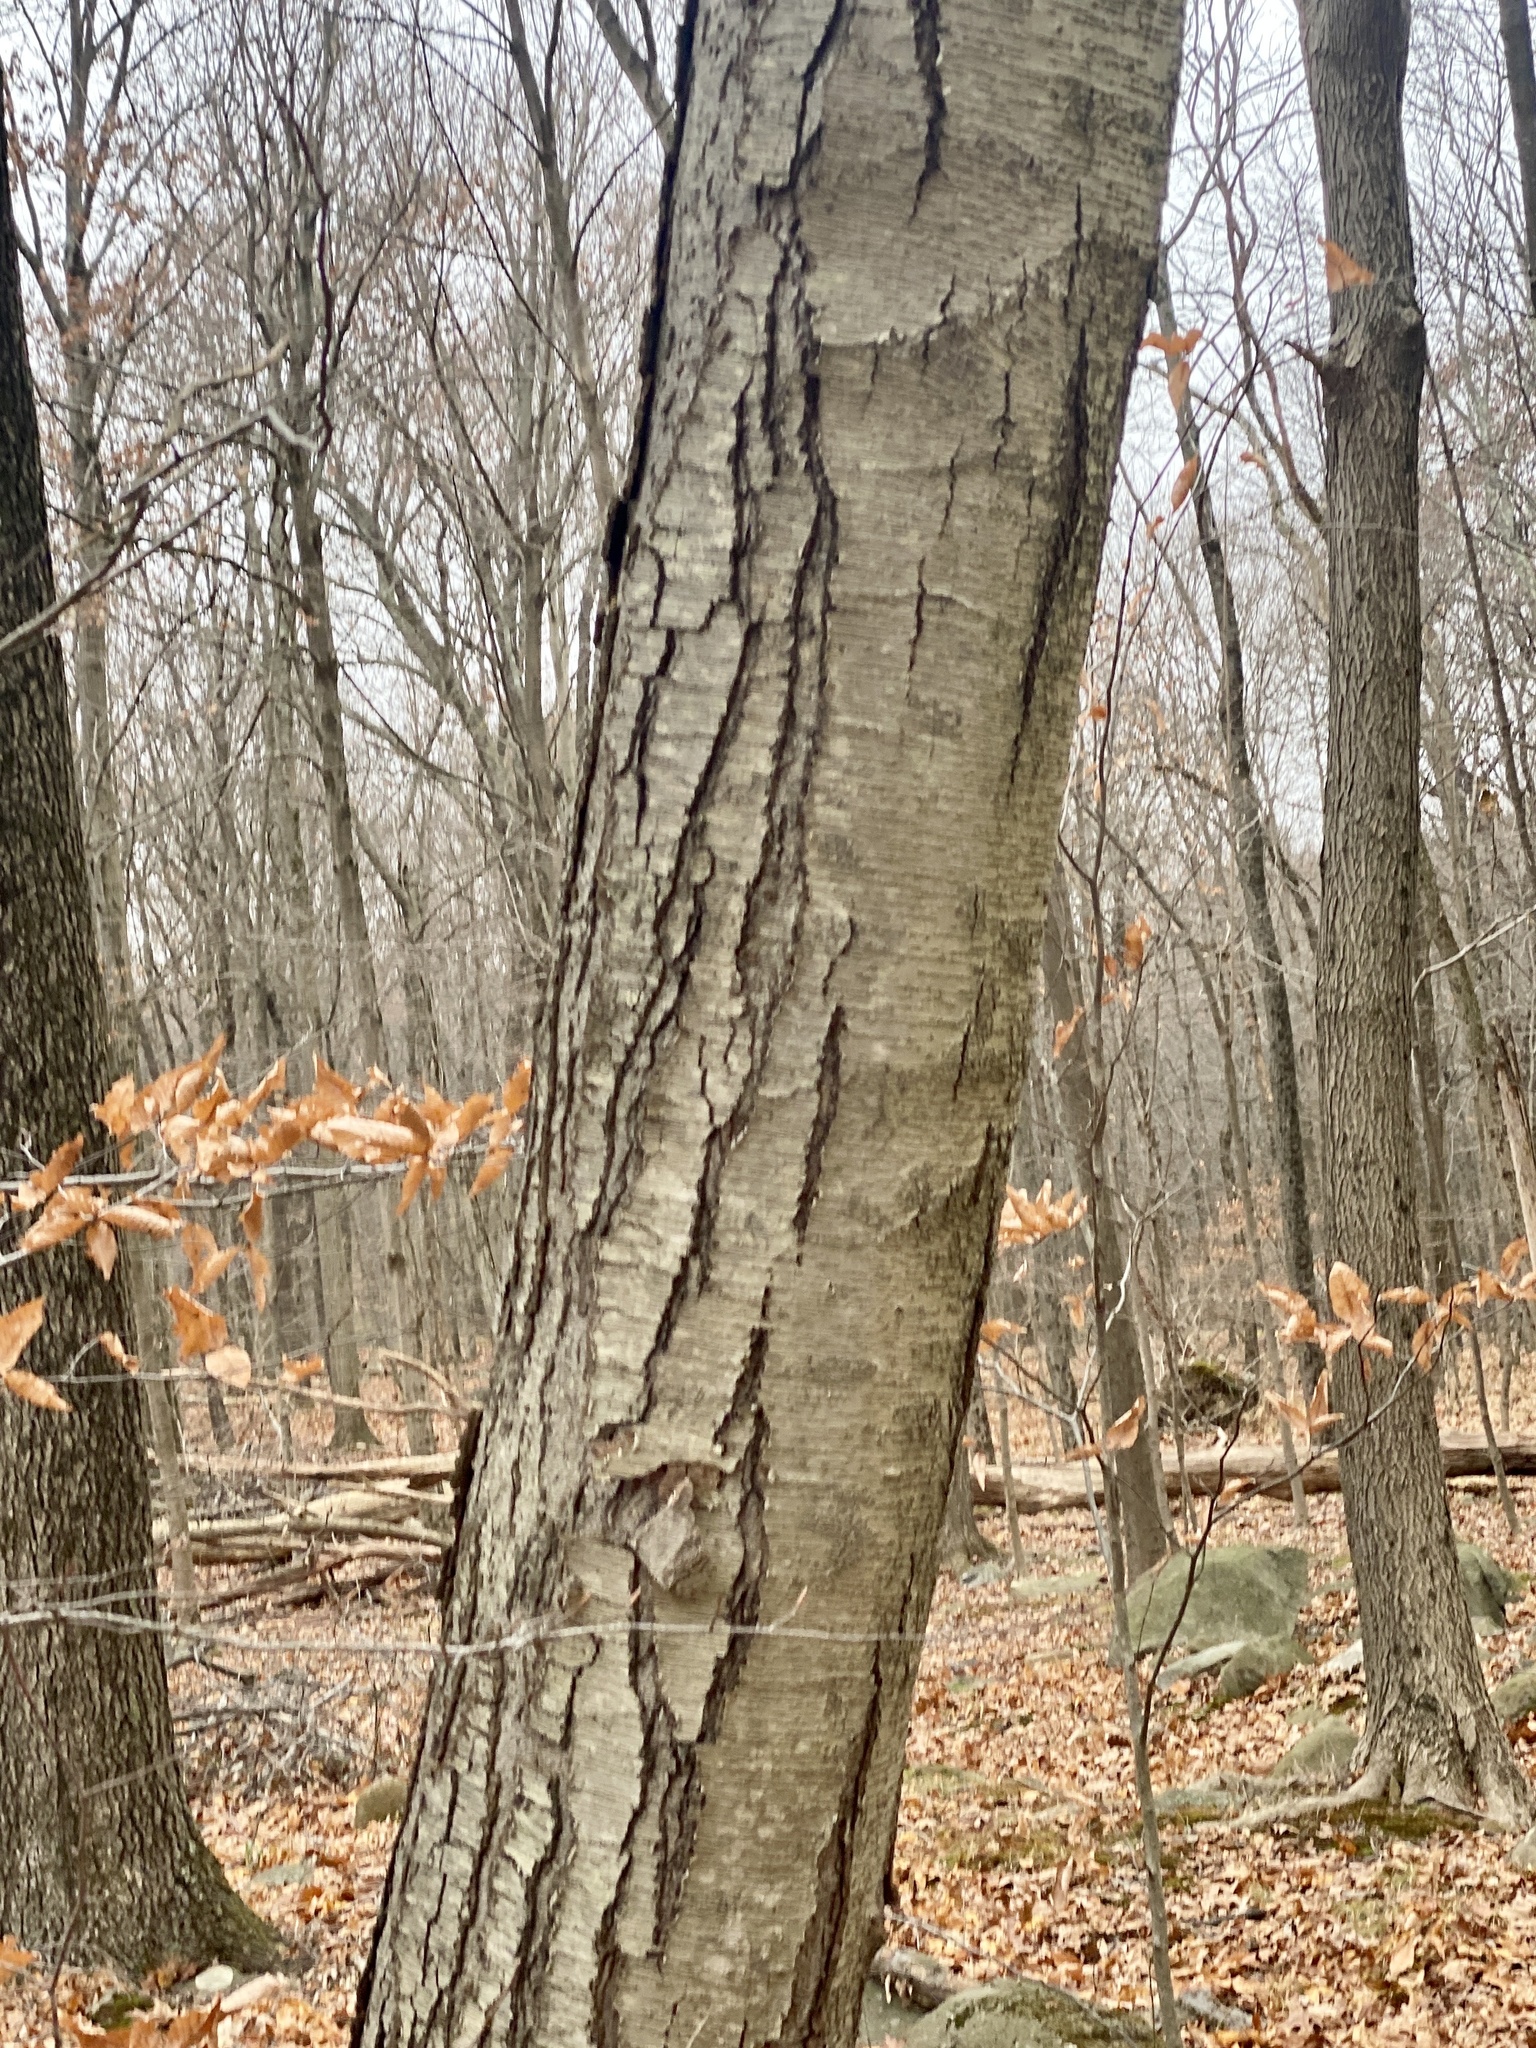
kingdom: Plantae
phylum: Tracheophyta
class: Magnoliopsida
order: Fagales
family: Betulaceae
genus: Betula
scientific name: Betula lenta
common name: Black birch
